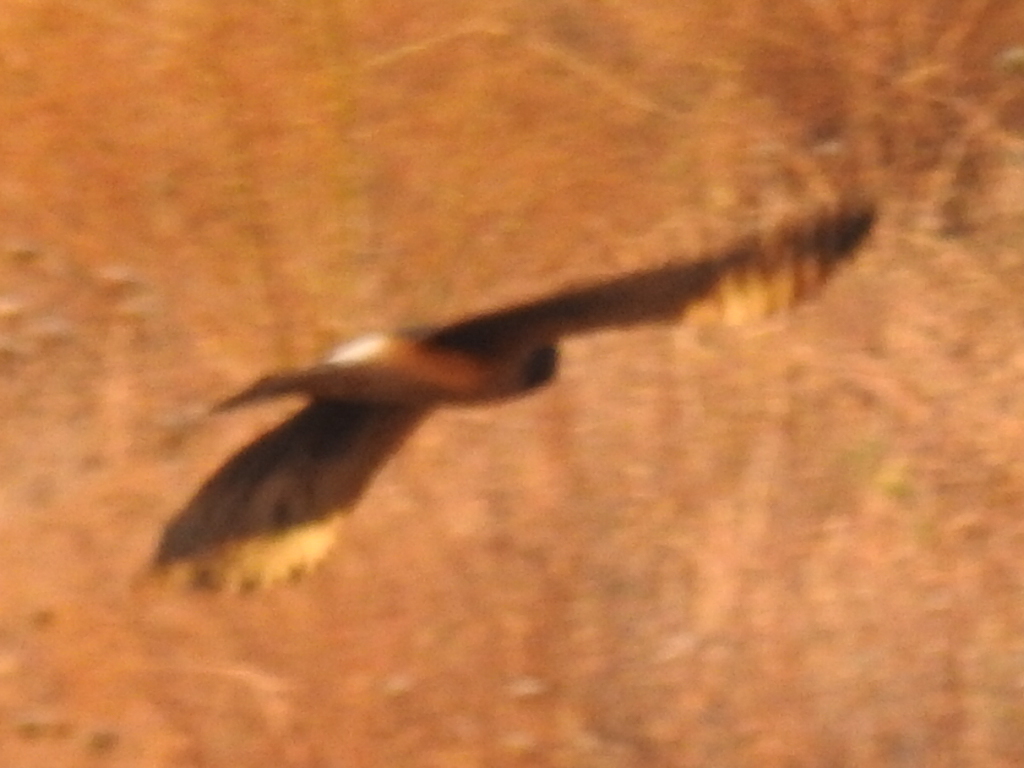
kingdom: Animalia
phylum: Chordata
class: Aves
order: Accipitriformes
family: Accipitridae
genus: Circus
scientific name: Circus cyaneus
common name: Hen harrier
